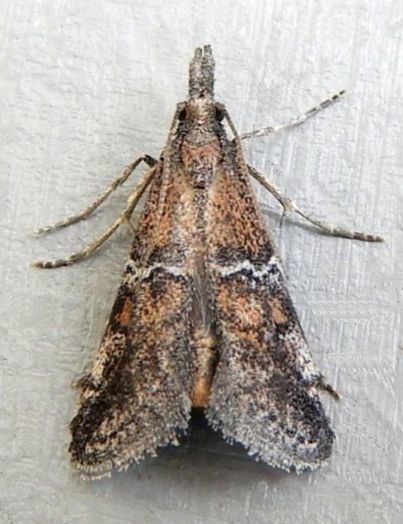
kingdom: Animalia
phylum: Arthropoda
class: Insecta
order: Lepidoptera
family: Pyralidae
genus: Alpheias
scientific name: Alpheias vicarilis
